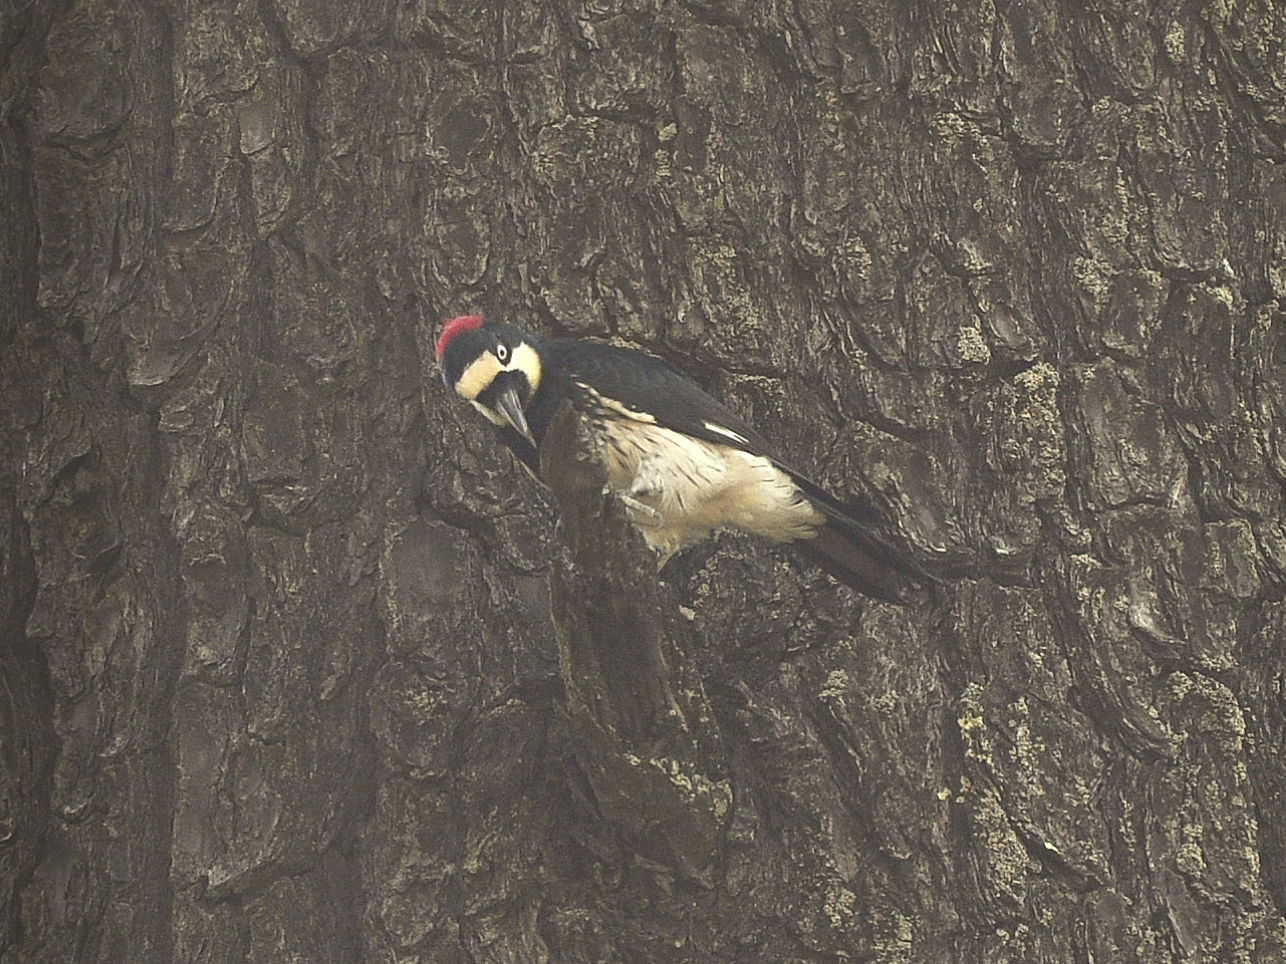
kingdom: Animalia
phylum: Chordata
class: Aves
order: Piciformes
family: Picidae
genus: Melanerpes
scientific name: Melanerpes formicivorus
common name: Acorn woodpecker
